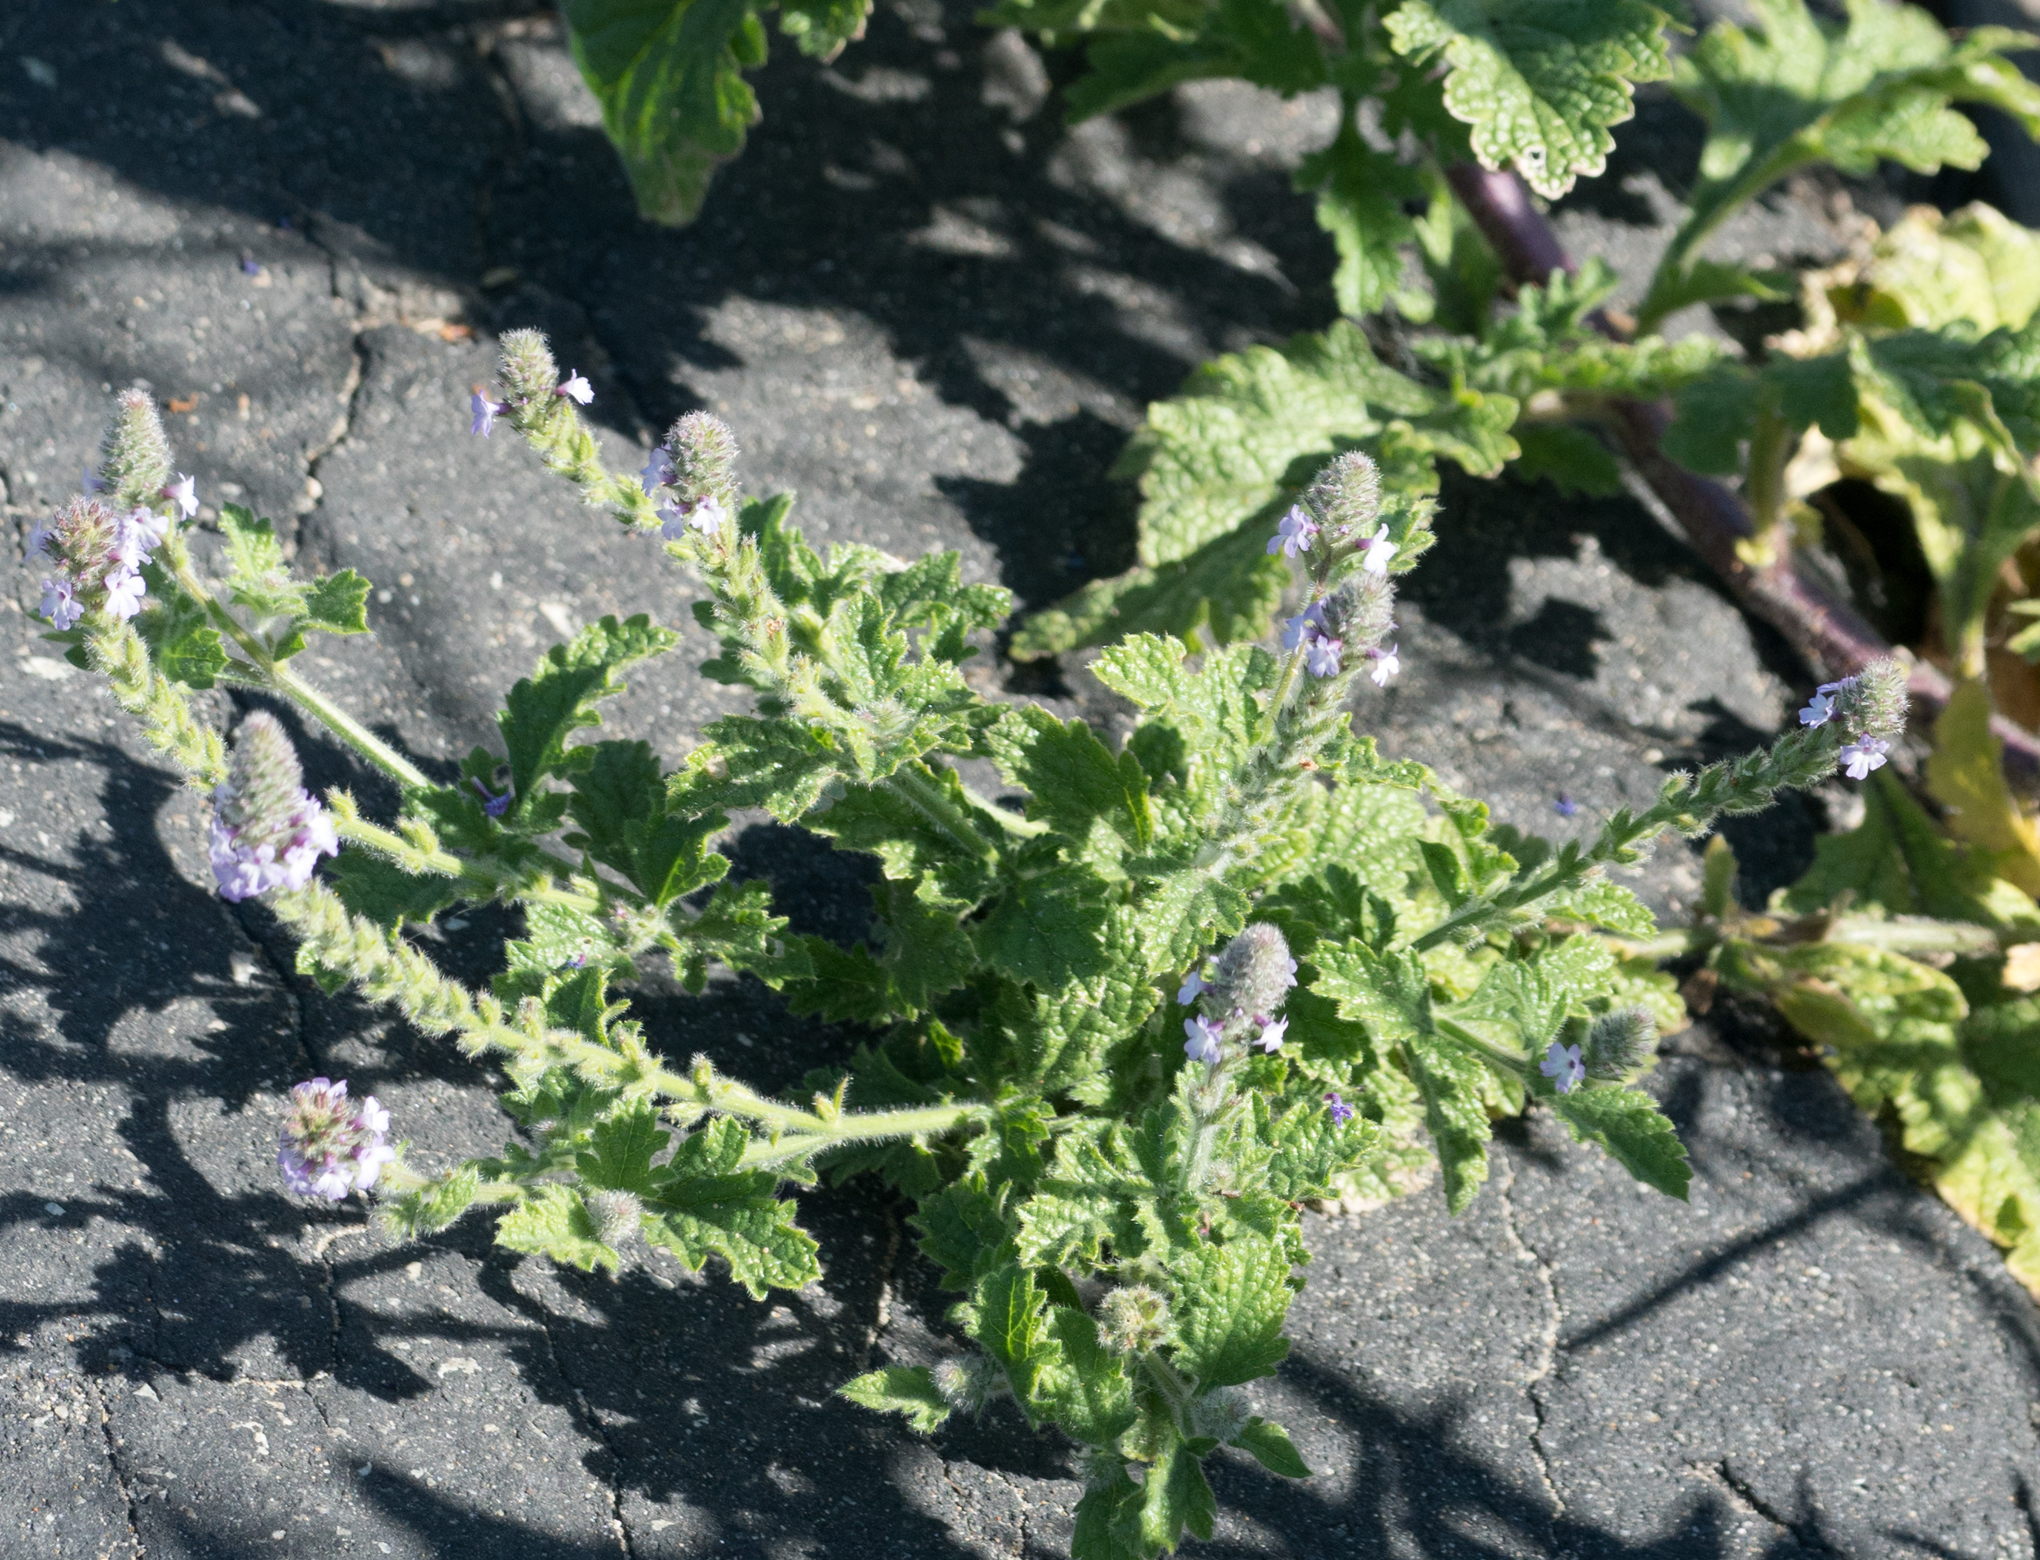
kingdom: Plantae
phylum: Tracheophyta
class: Magnoliopsida
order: Lamiales
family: Verbenaceae
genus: Verbena
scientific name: Verbena lasiostachys
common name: Vervain
